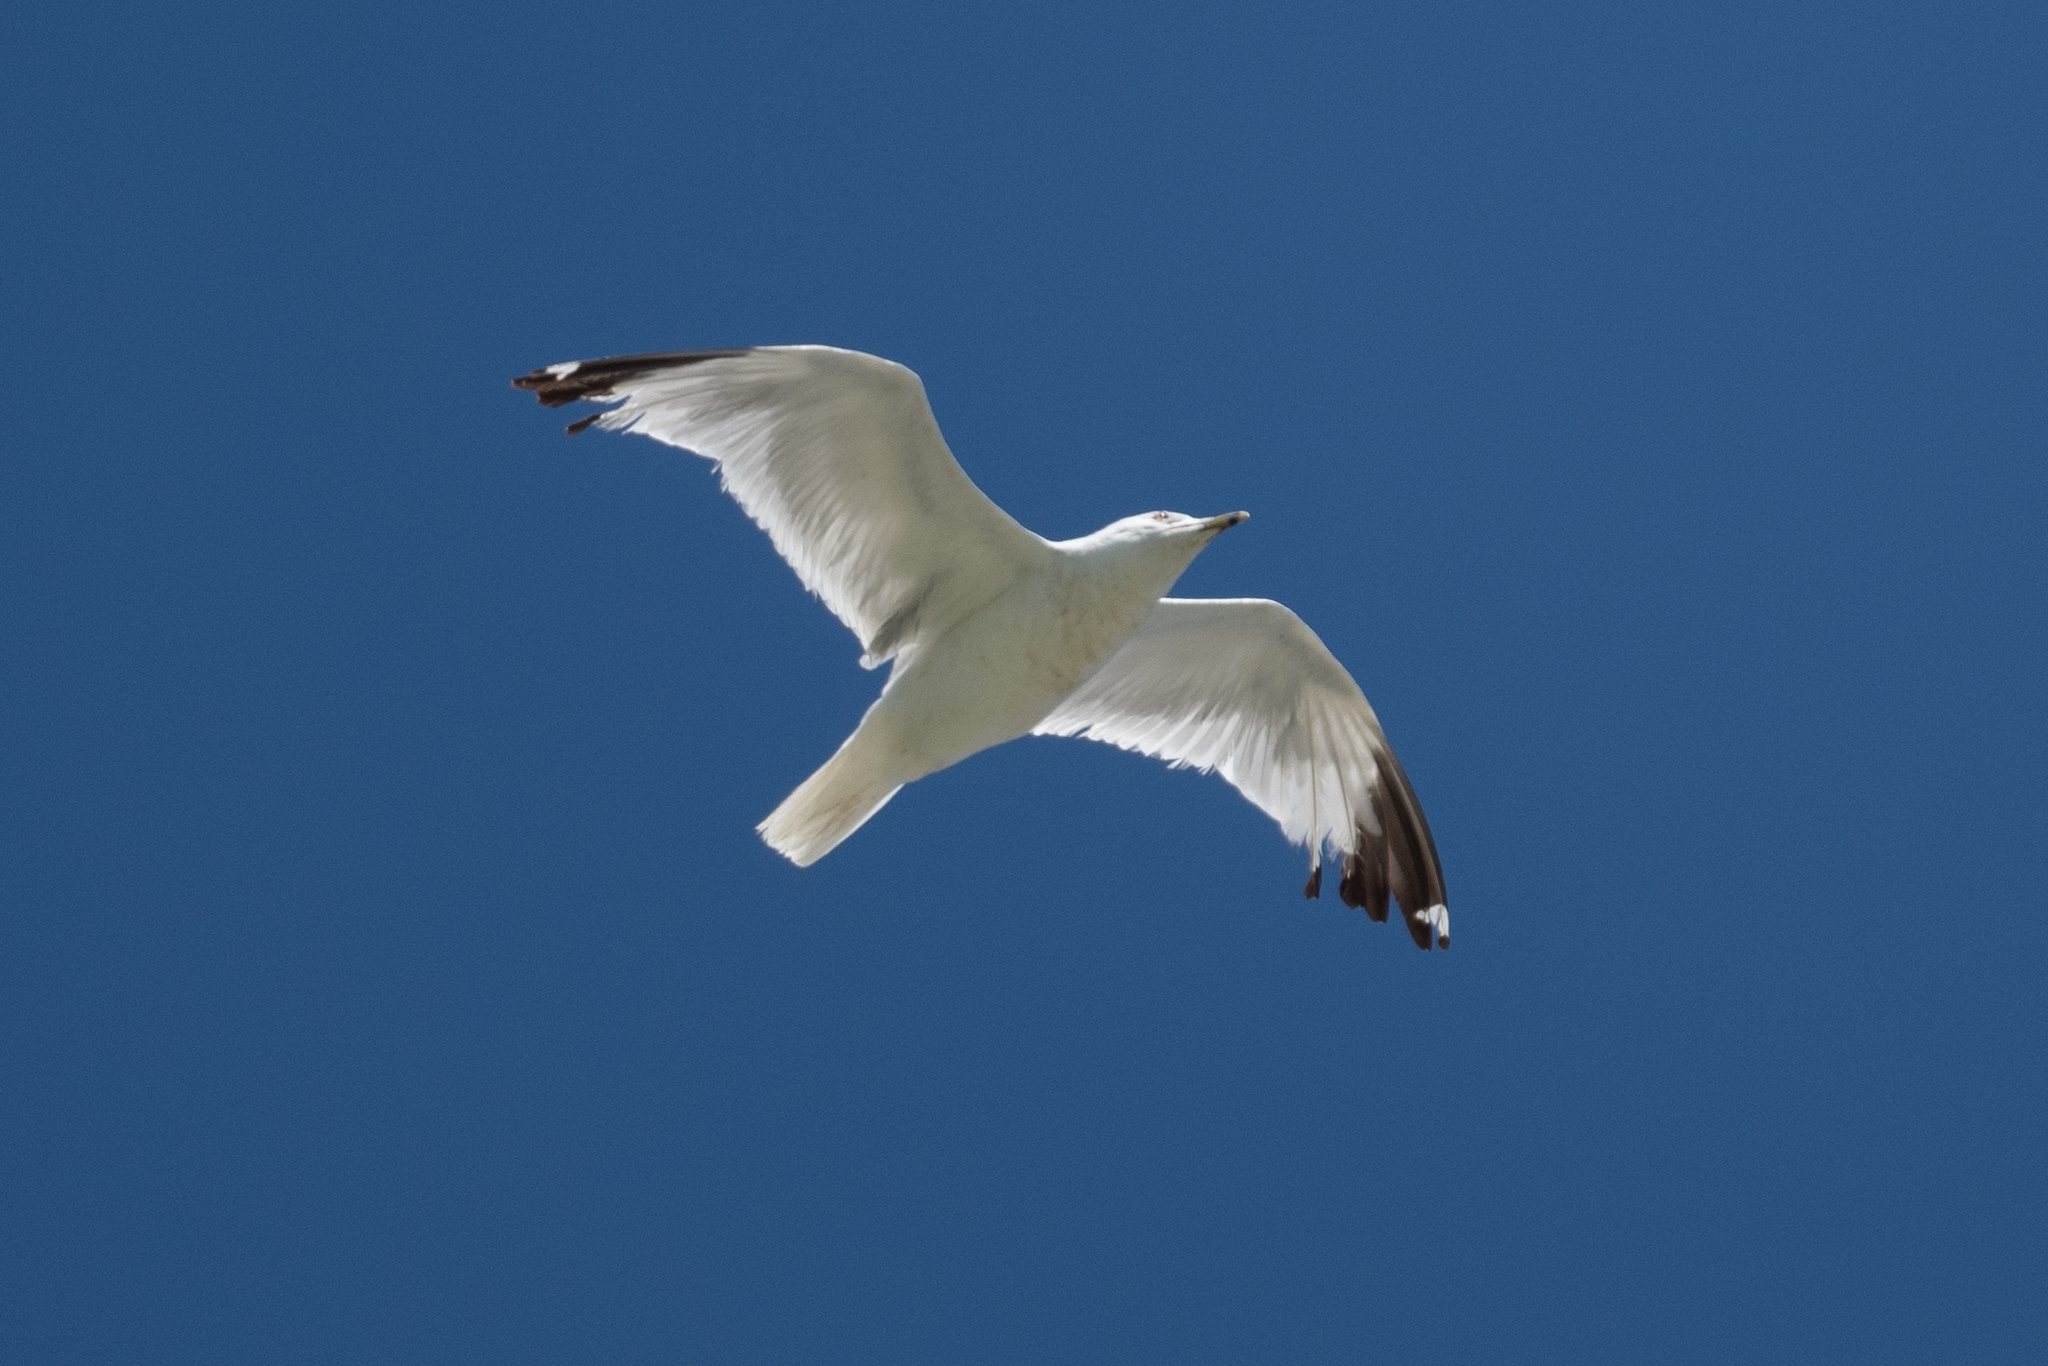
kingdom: Animalia
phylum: Chordata
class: Aves
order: Charadriiformes
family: Laridae
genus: Larus
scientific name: Larus delawarensis
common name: Ring-billed gull
